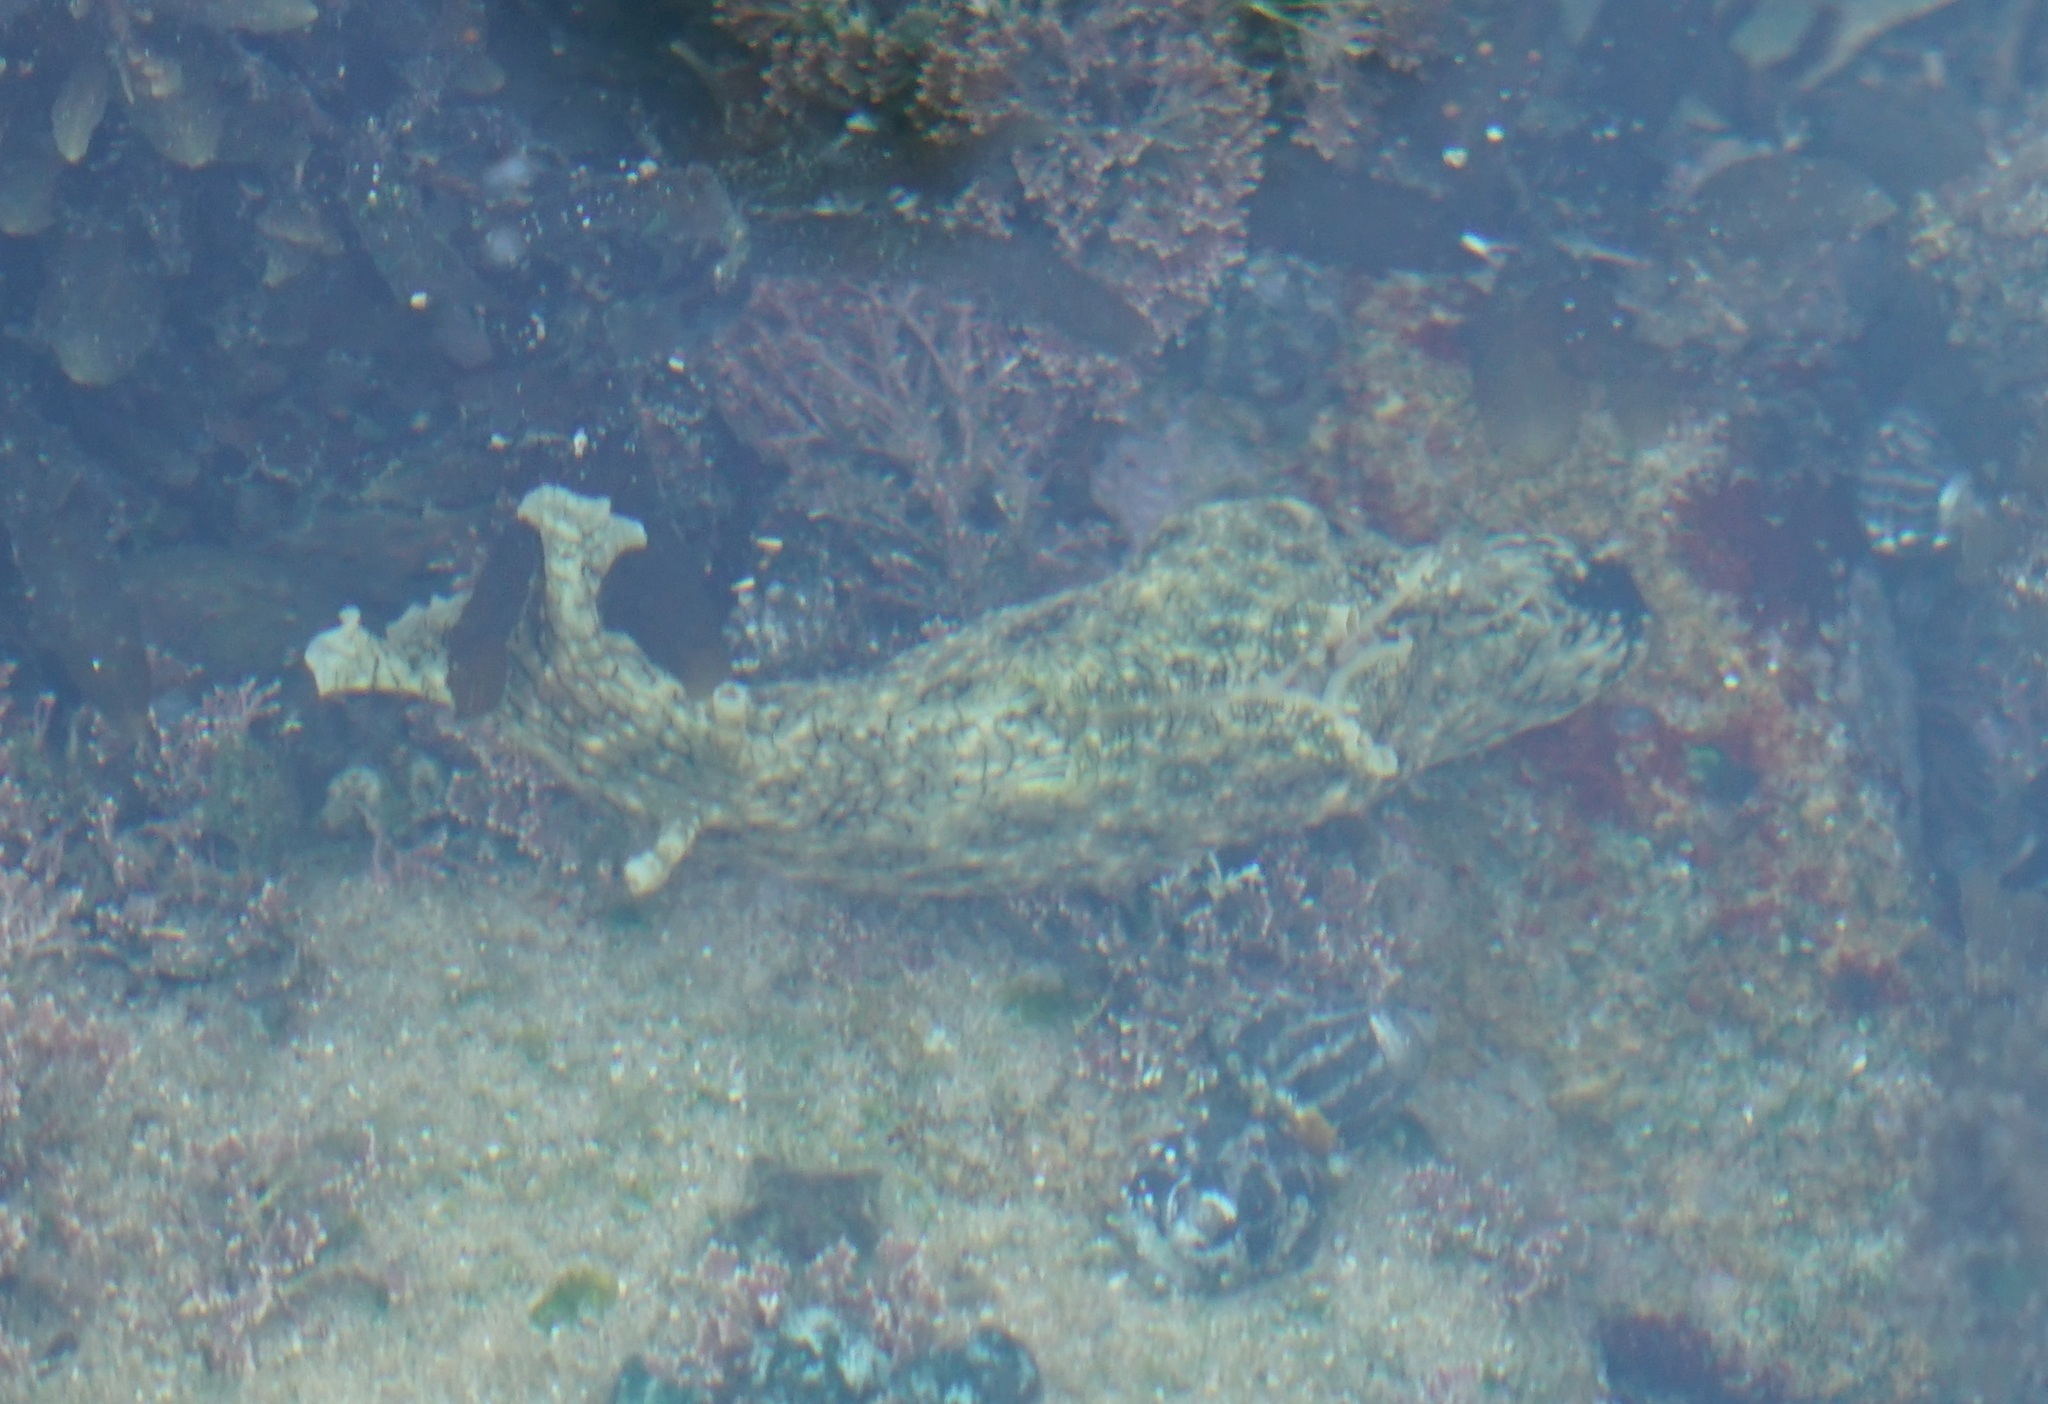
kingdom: Animalia
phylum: Mollusca
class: Gastropoda
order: Aplysiida
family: Aplysiidae
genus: Aplysia
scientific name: Aplysia argus
